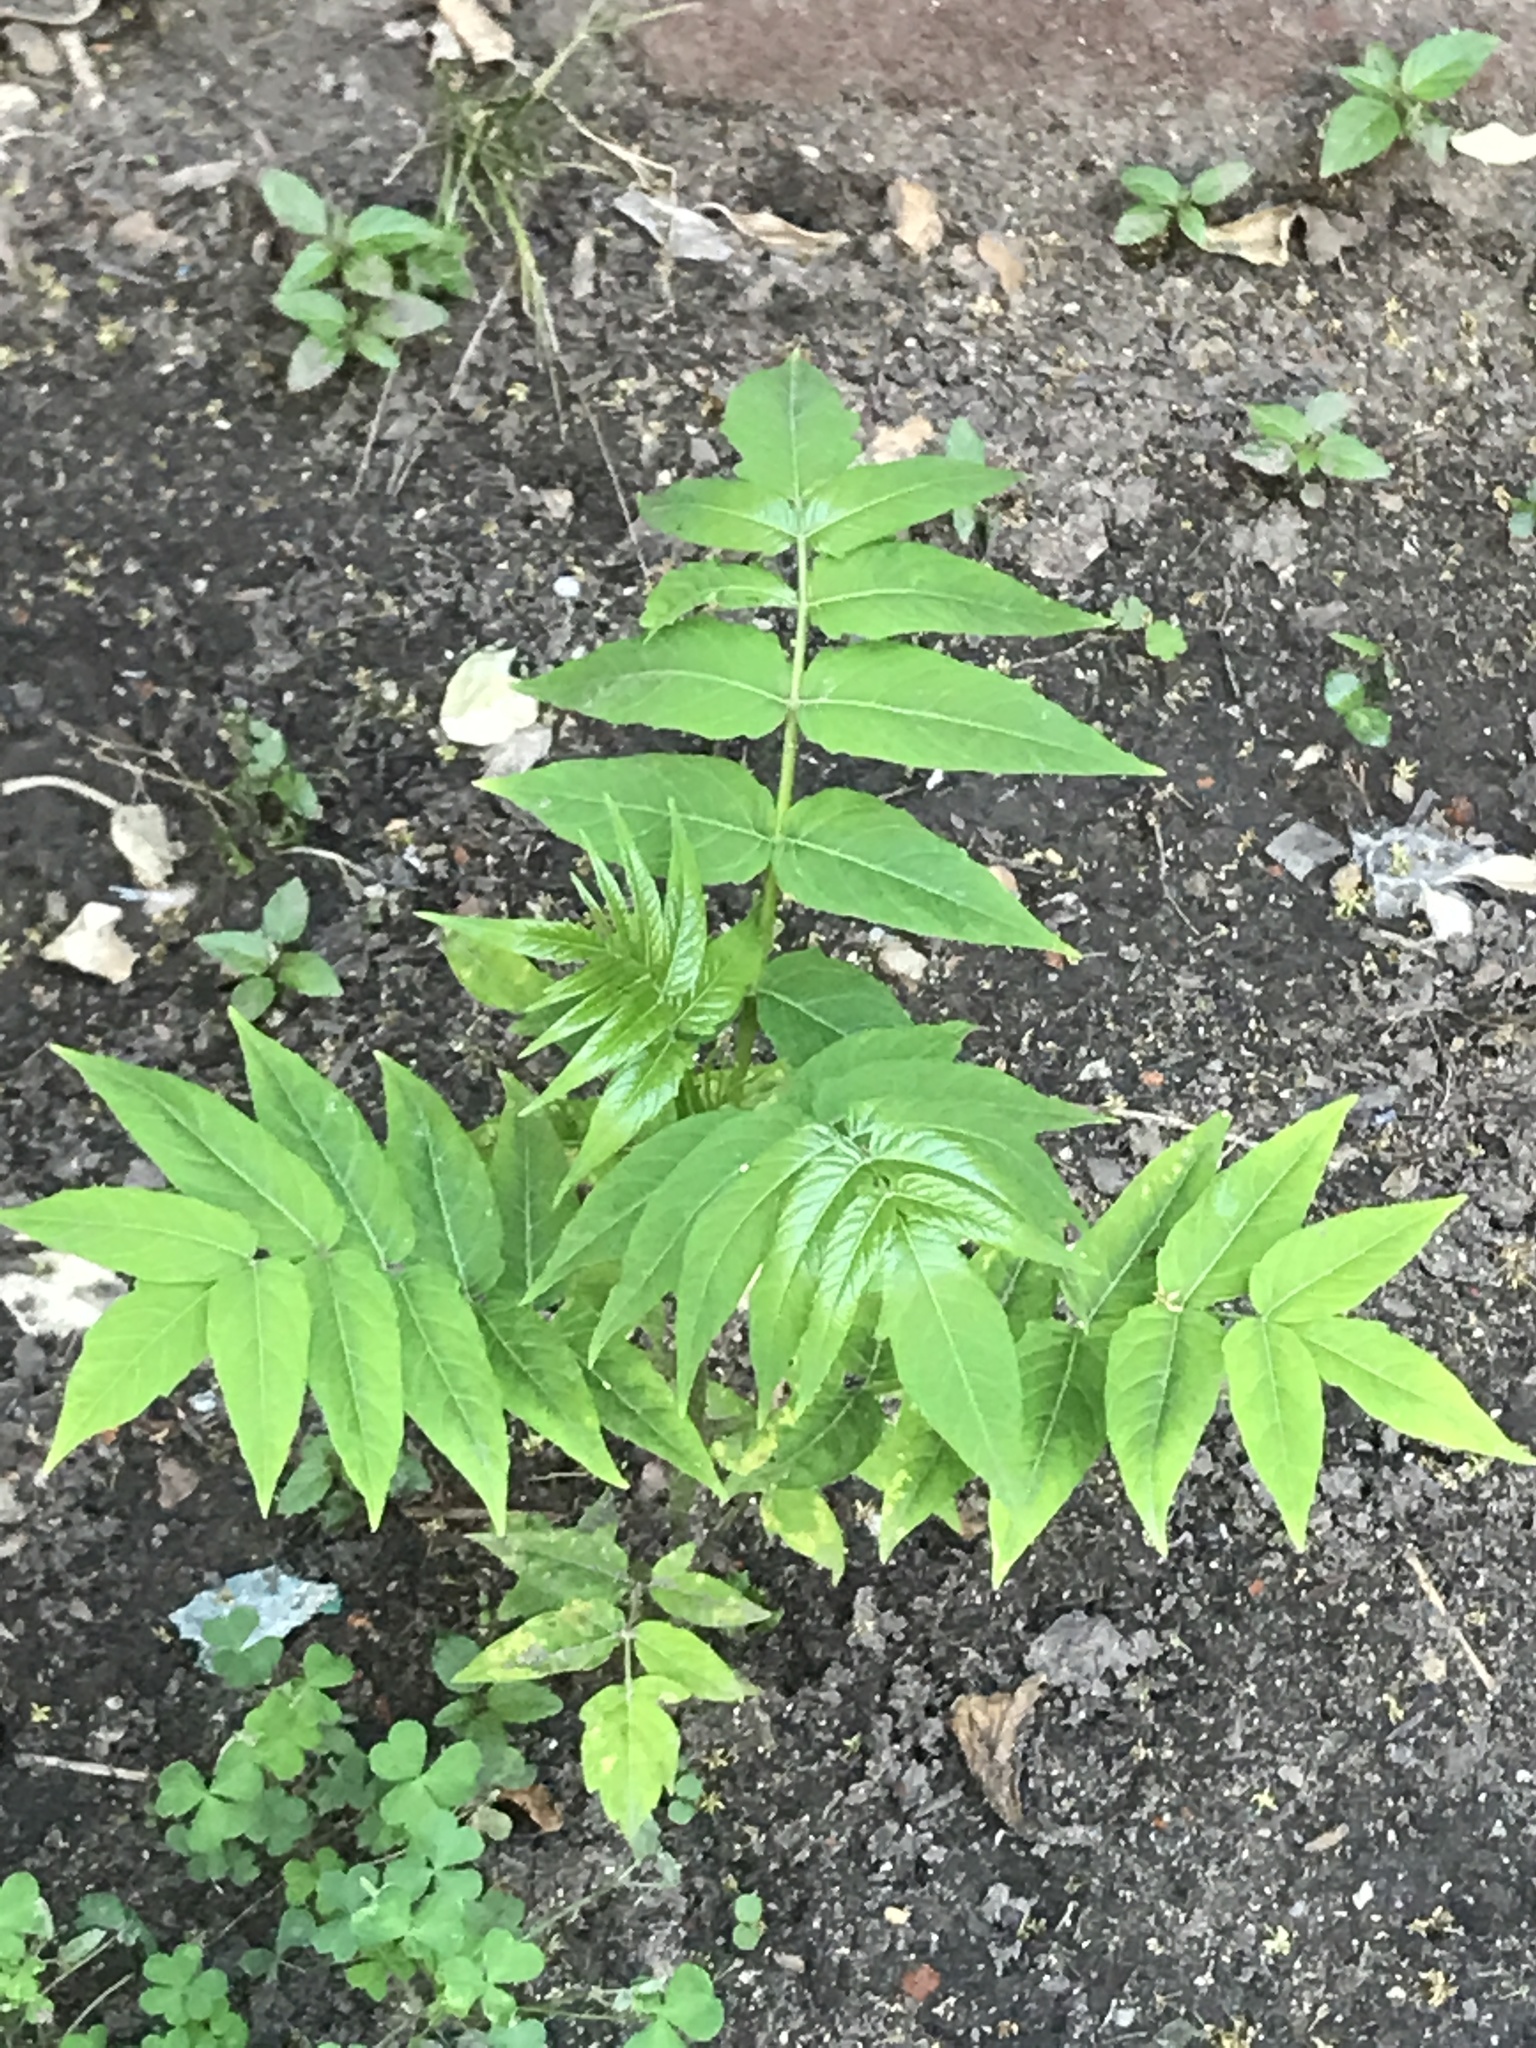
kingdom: Plantae
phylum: Tracheophyta
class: Magnoliopsida
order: Sapindales
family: Simaroubaceae
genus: Ailanthus
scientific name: Ailanthus altissima
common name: Tree-of-heaven
